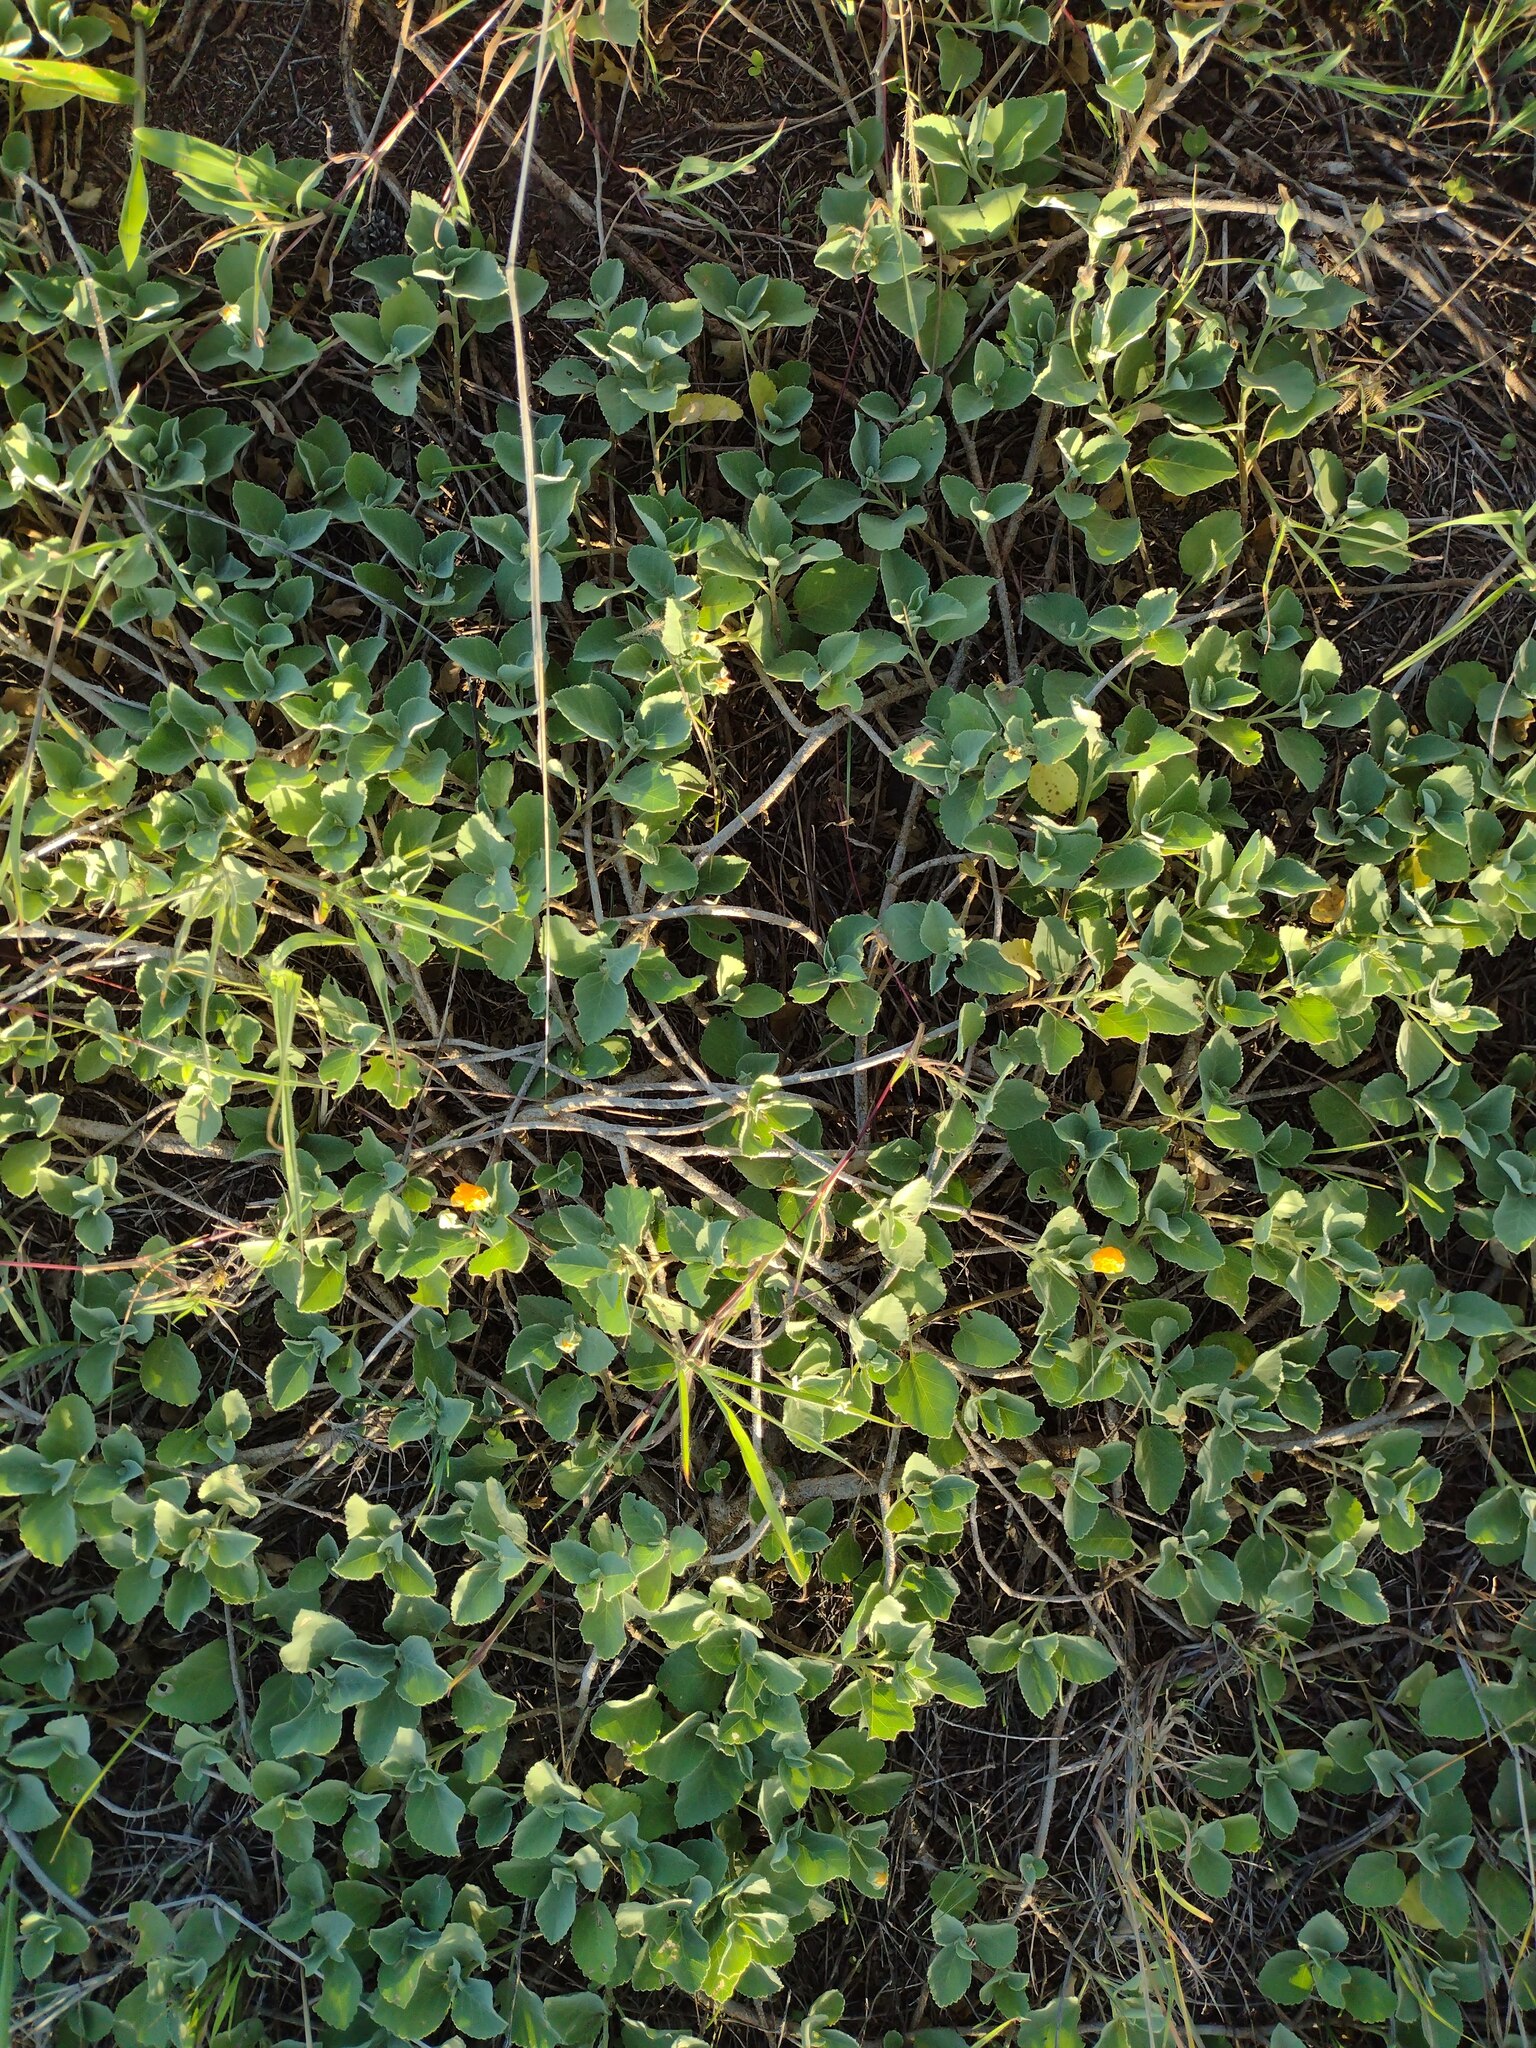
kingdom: Plantae
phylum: Tracheophyta
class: Magnoliopsida
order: Malvales
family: Malvaceae
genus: Sida
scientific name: Sida fallax
